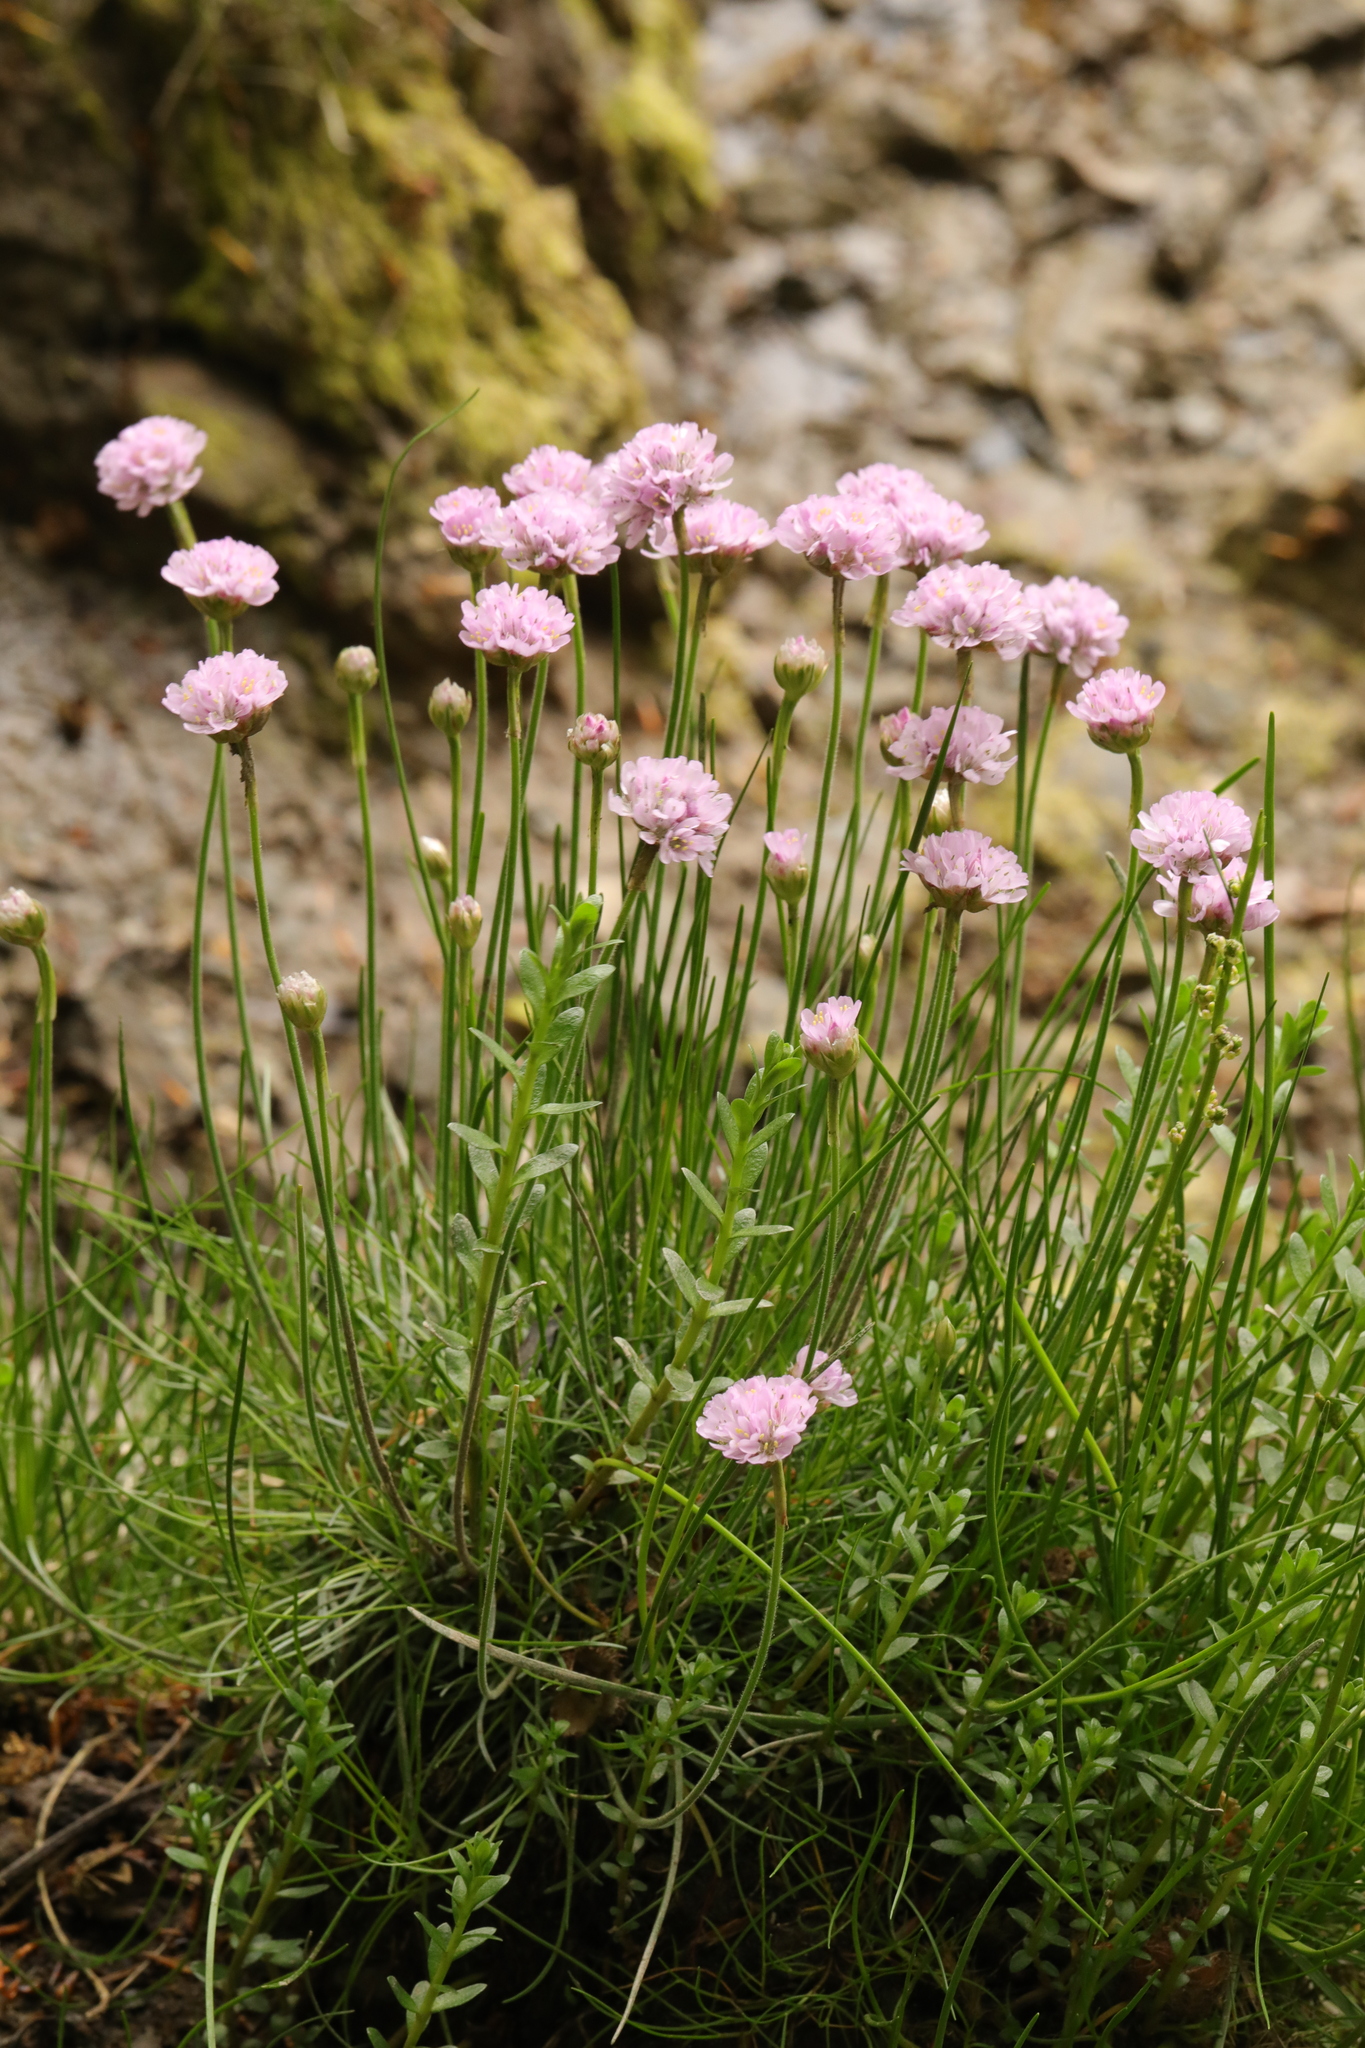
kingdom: Plantae
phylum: Tracheophyta
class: Magnoliopsida
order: Caryophyllales
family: Plumbaginaceae
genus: Armeria
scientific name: Armeria maritima
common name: Thrift
